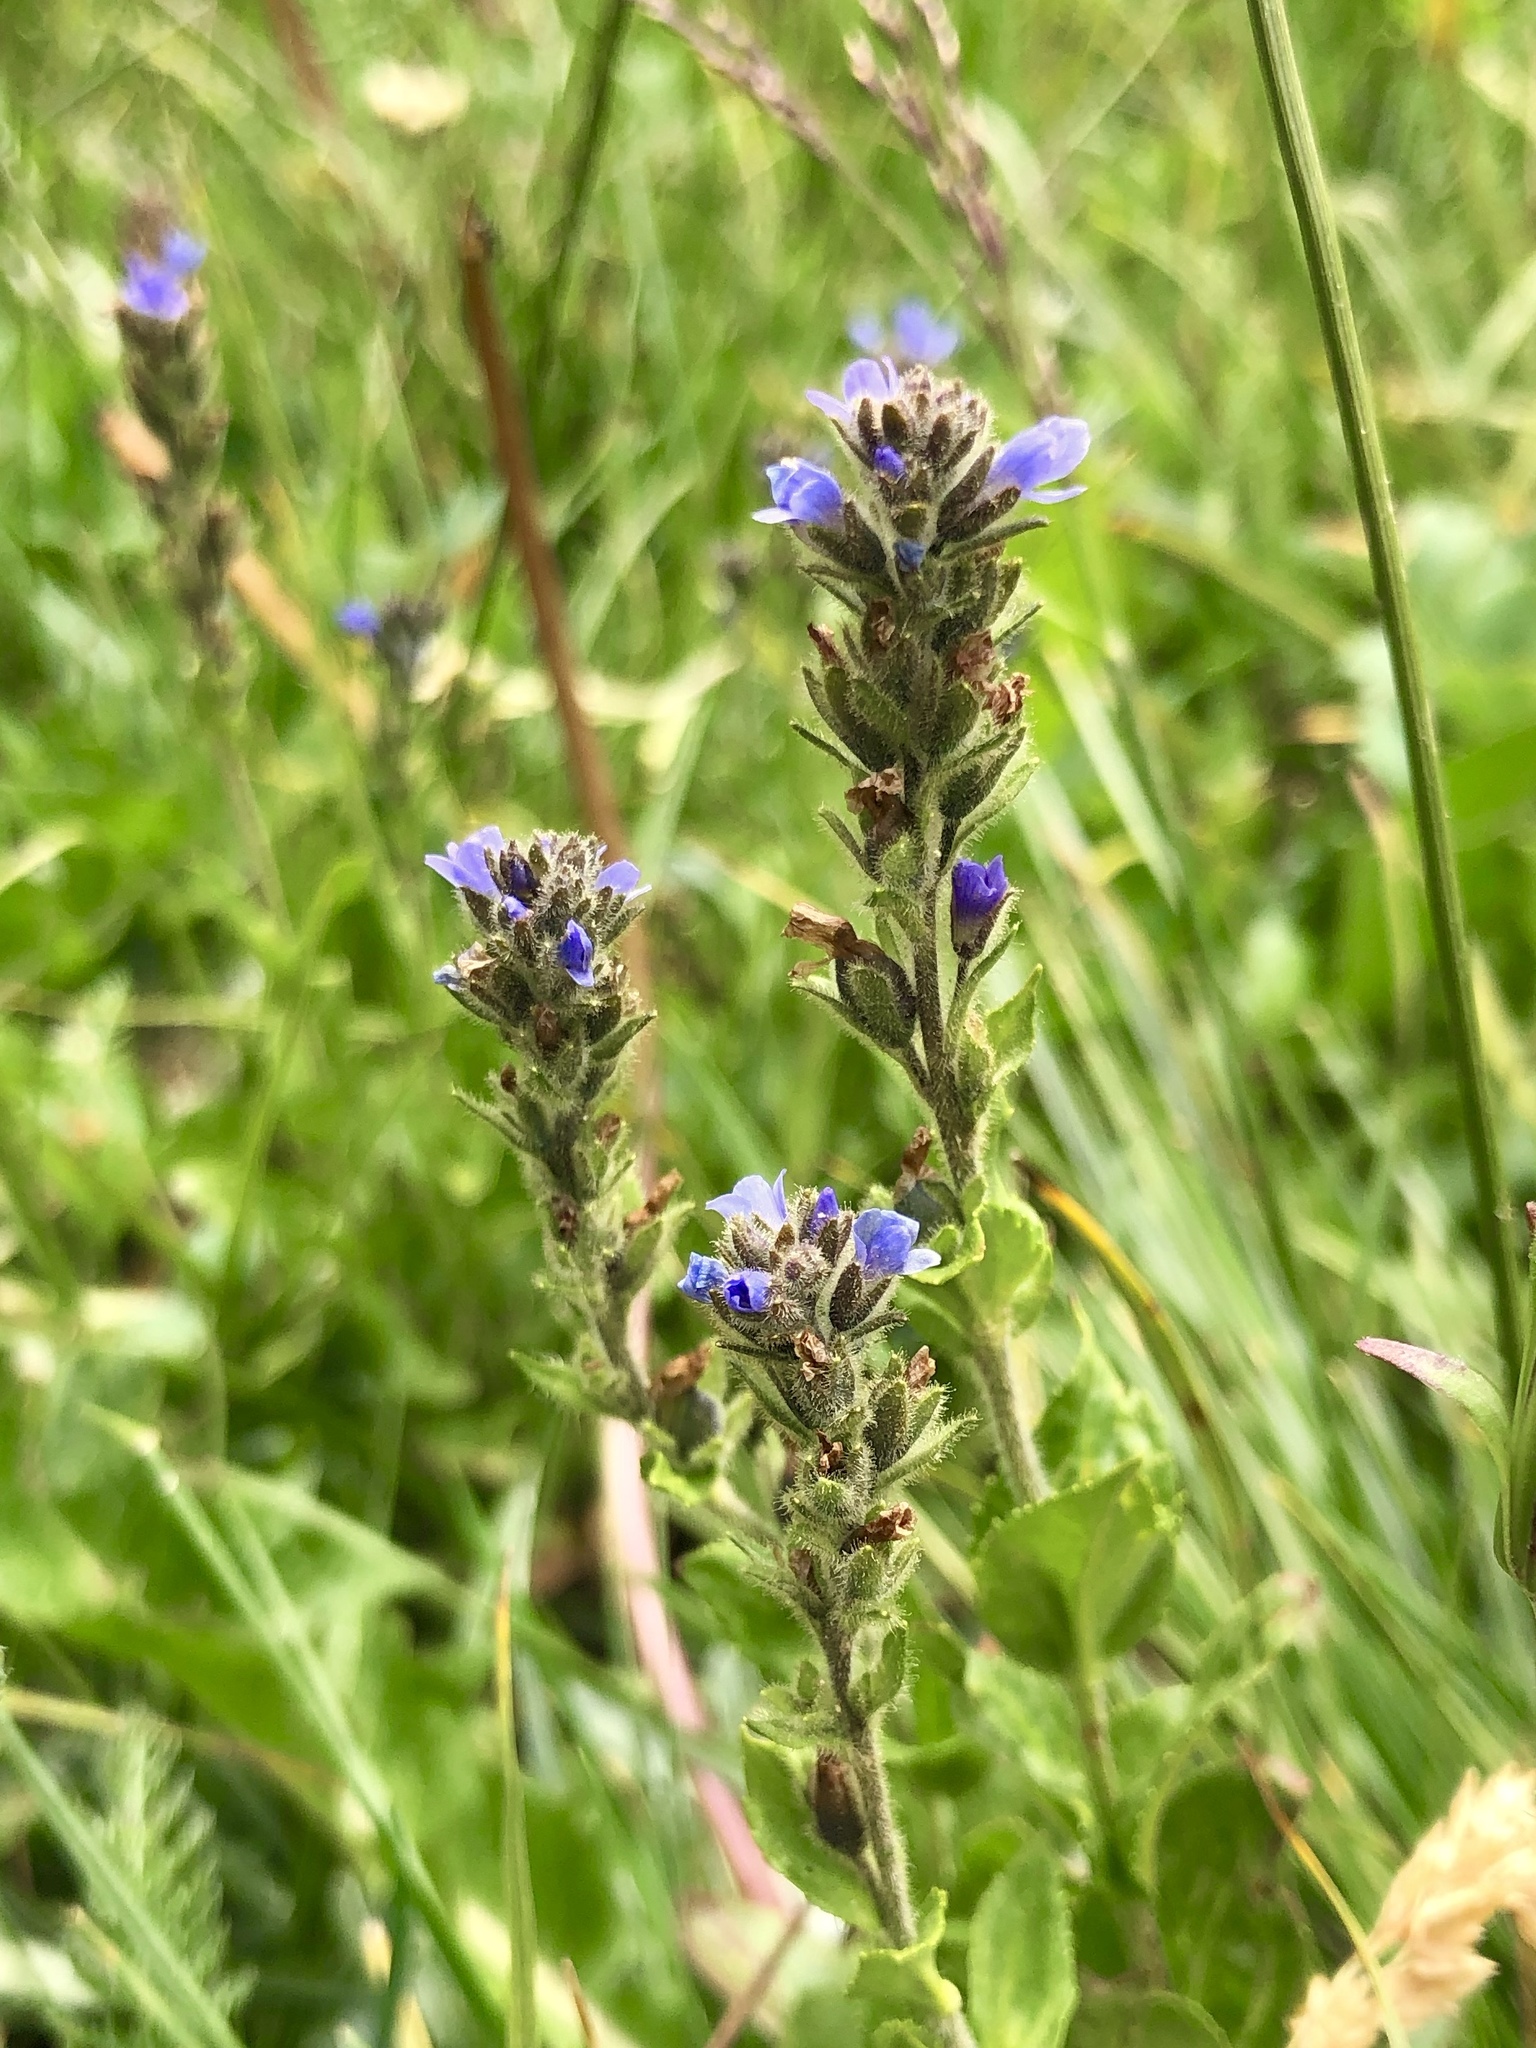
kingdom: Plantae
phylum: Tracheophyta
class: Magnoliopsida
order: Lamiales
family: Plantaginaceae
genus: Veronica
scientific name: Veronica wormskjoldii
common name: American alpine speedwell
